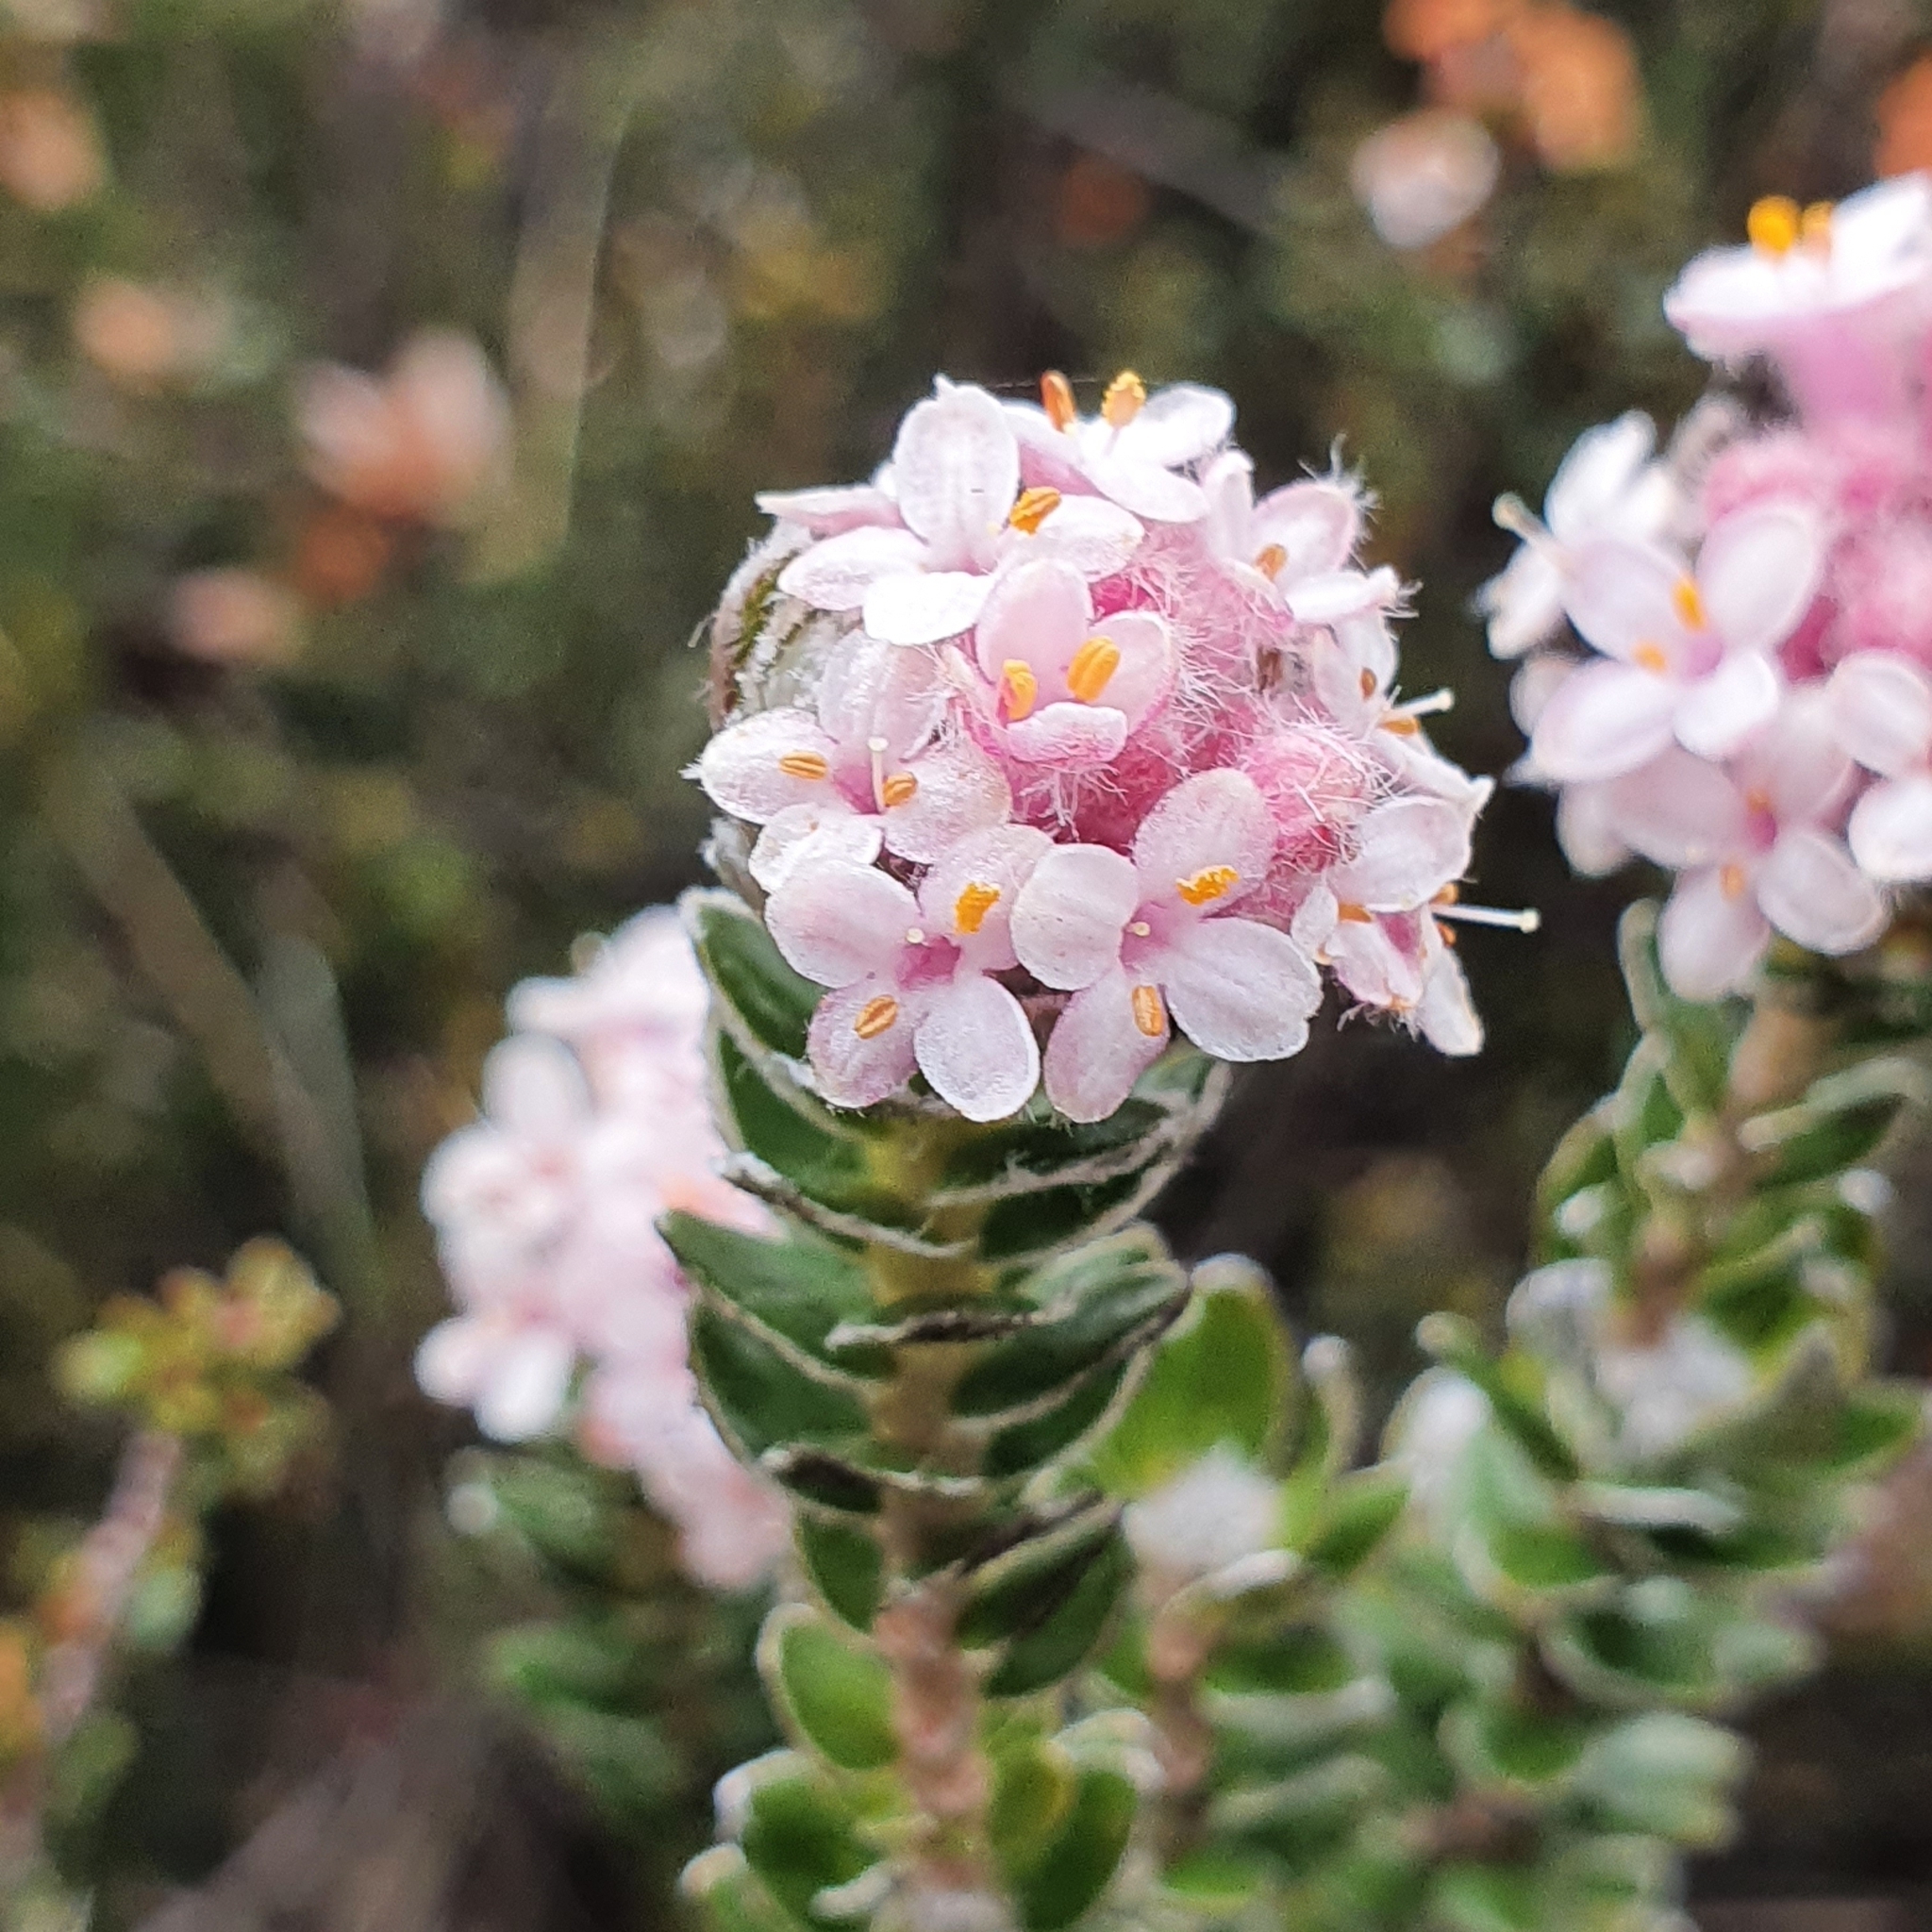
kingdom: Plantae
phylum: Tracheophyta
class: Magnoliopsida
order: Malvales
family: Thymelaeaceae
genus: Pimelea
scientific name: Pimelea sericea
